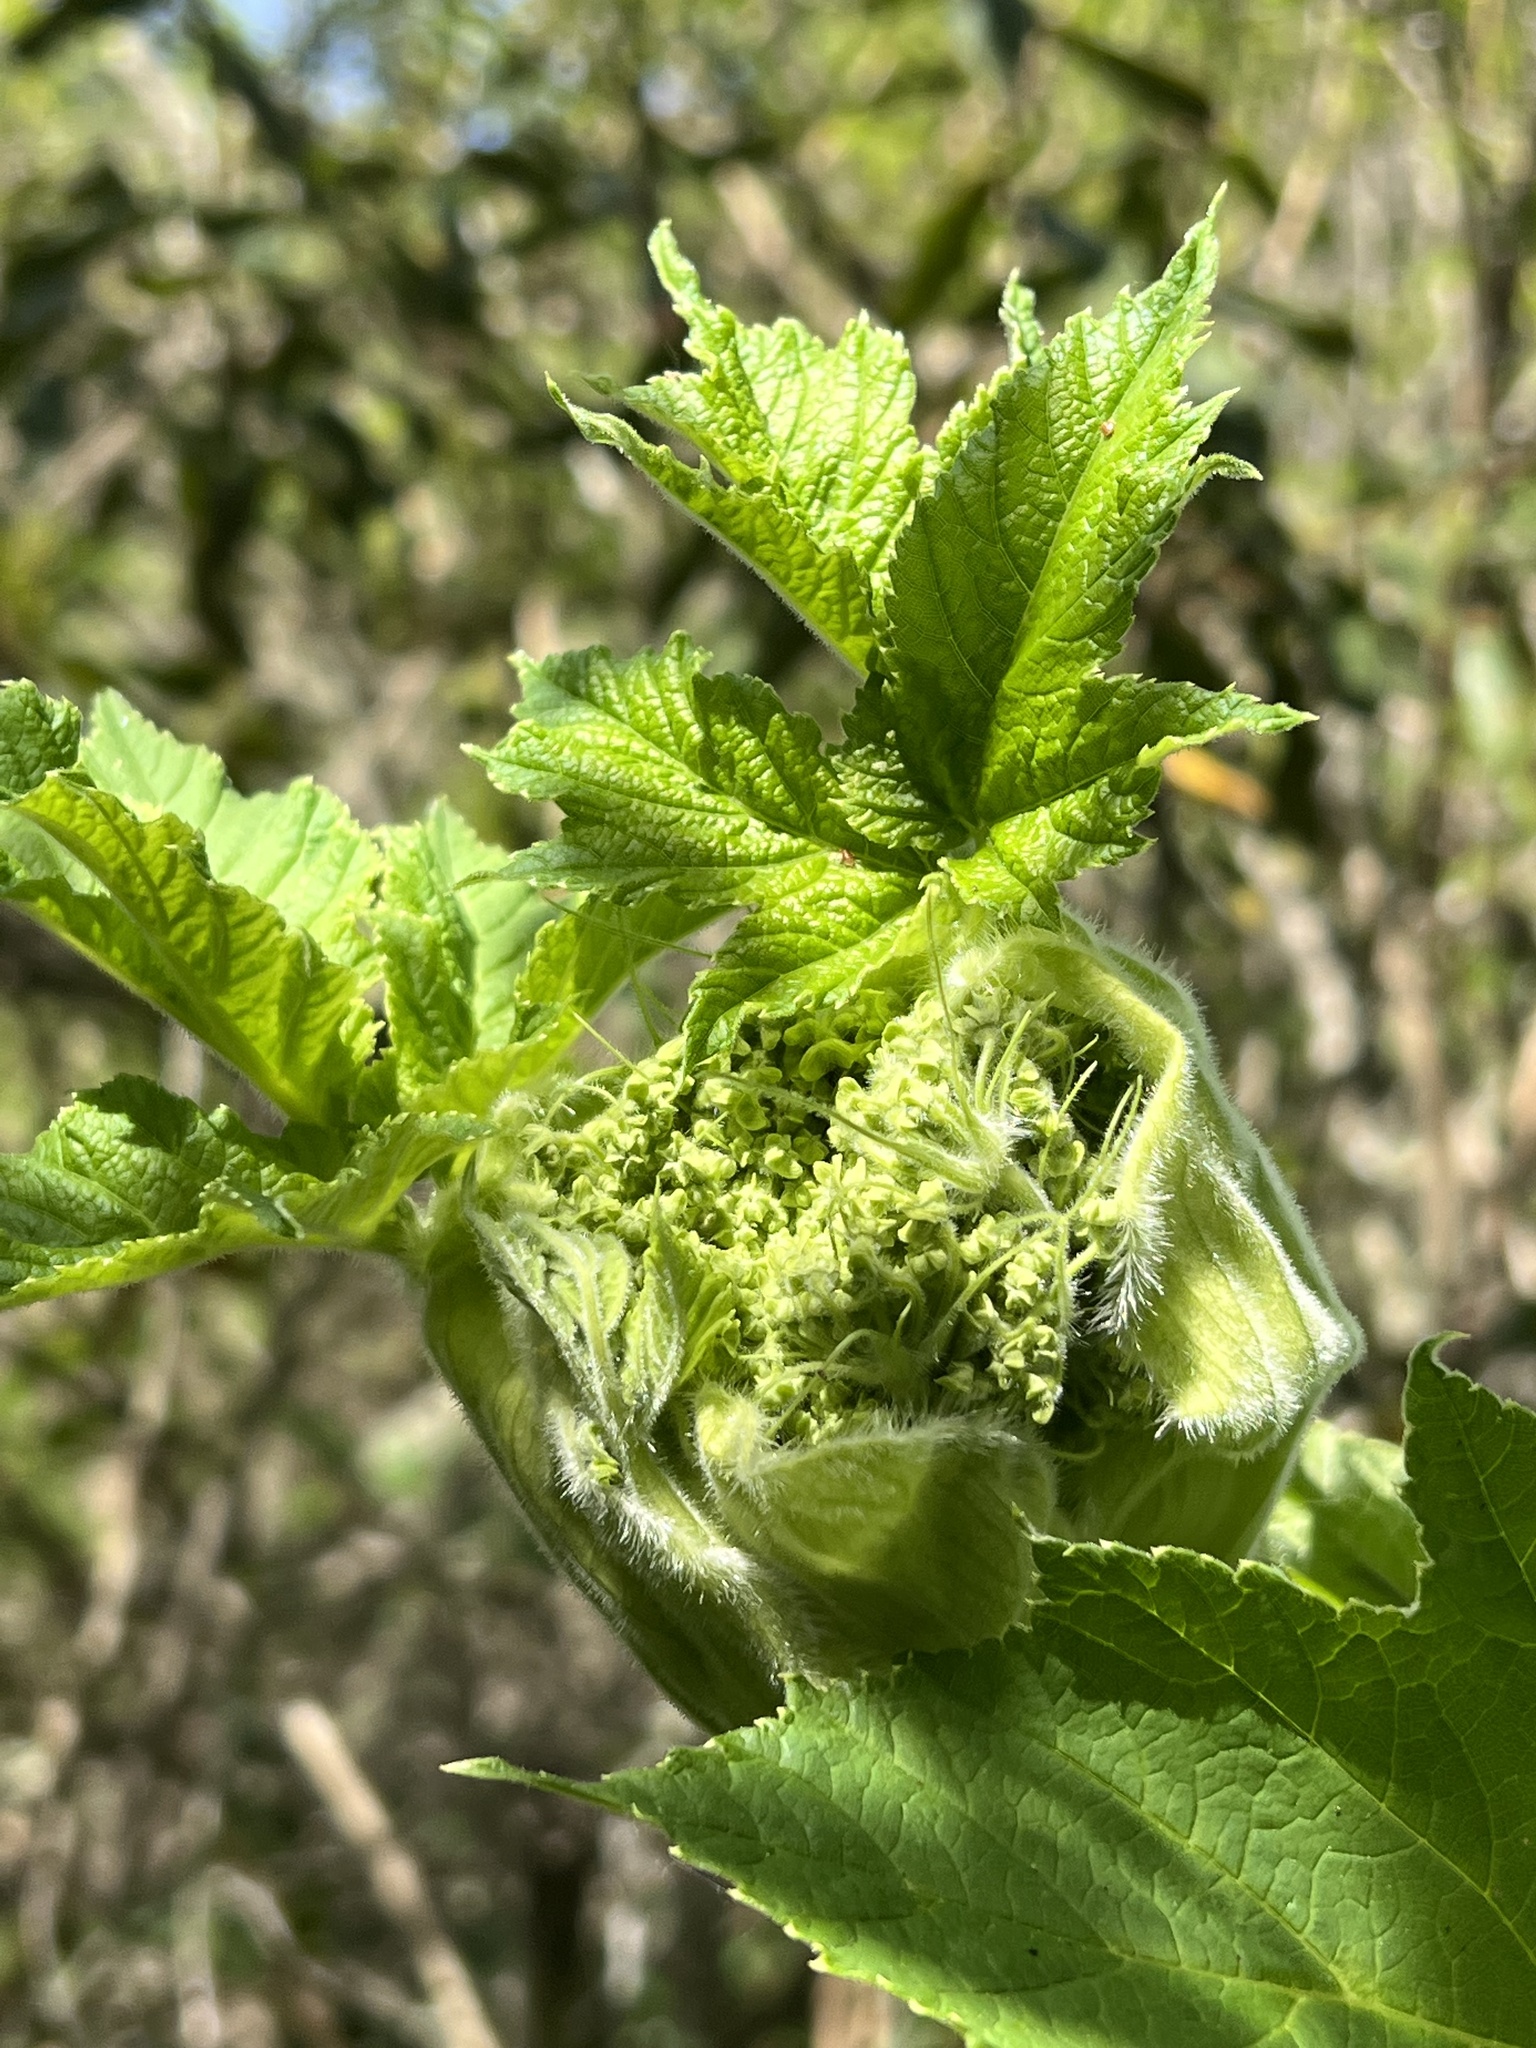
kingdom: Plantae
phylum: Tracheophyta
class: Magnoliopsida
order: Apiales
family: Apiaceae
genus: Heracleum
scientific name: Heracleum maximum
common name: American cow parsnip
